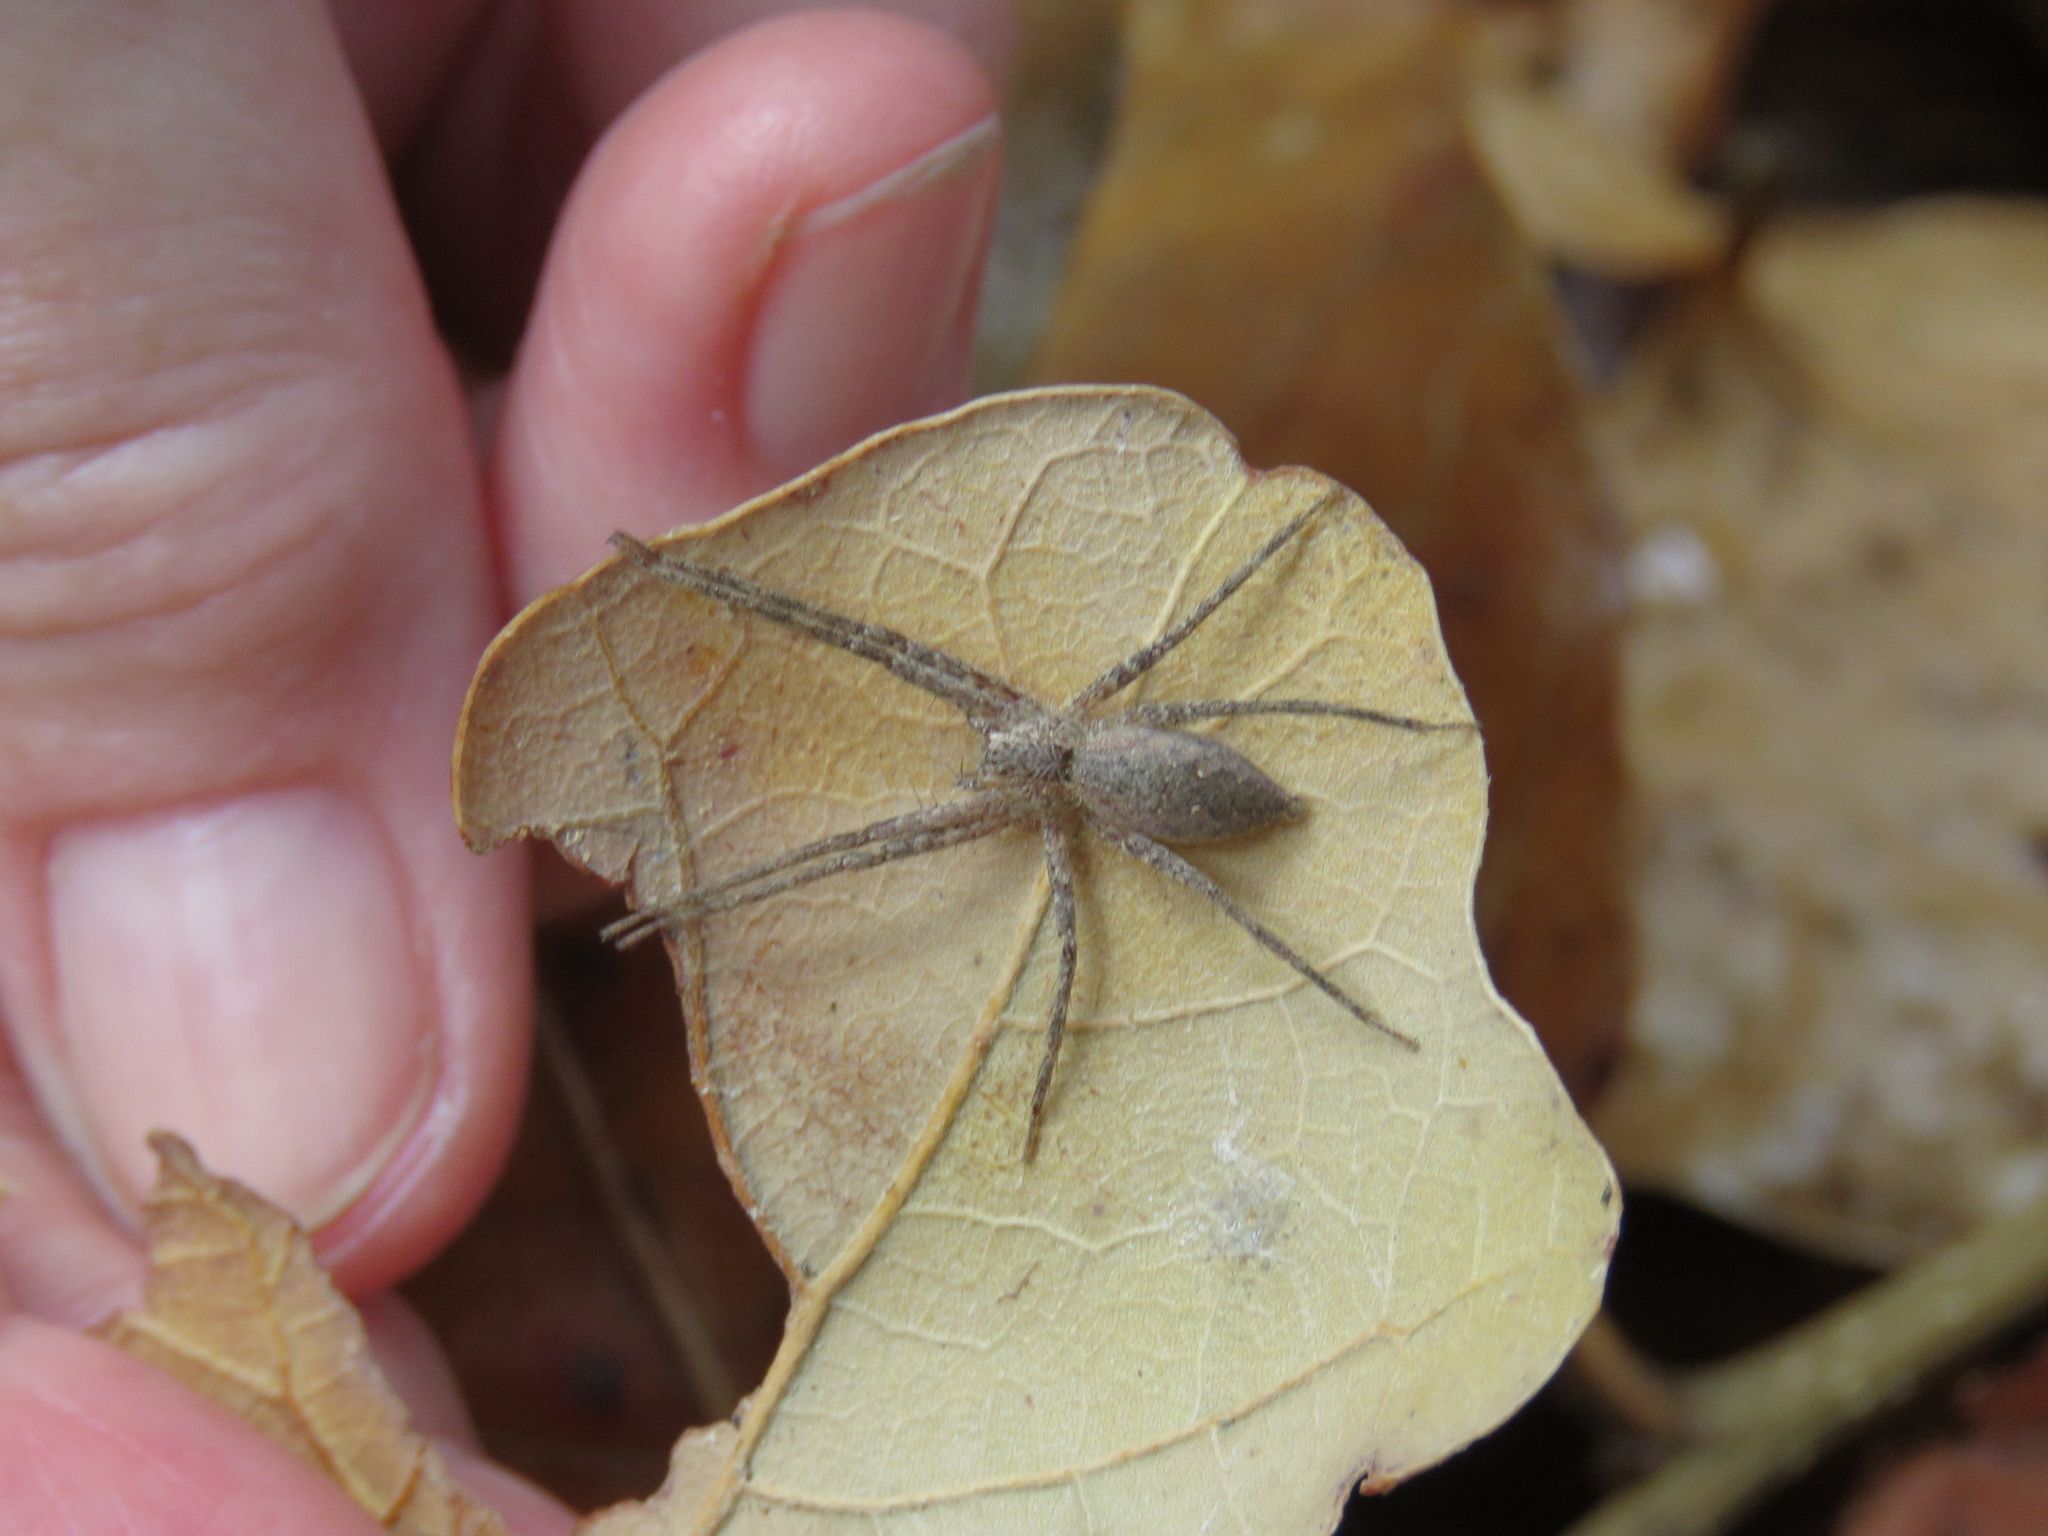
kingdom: Animalia
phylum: Arthropoda
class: Arachnida
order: Araneae
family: Pisauridae
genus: Pisaurina
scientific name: Pisaurina mira
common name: American nursery web spider
